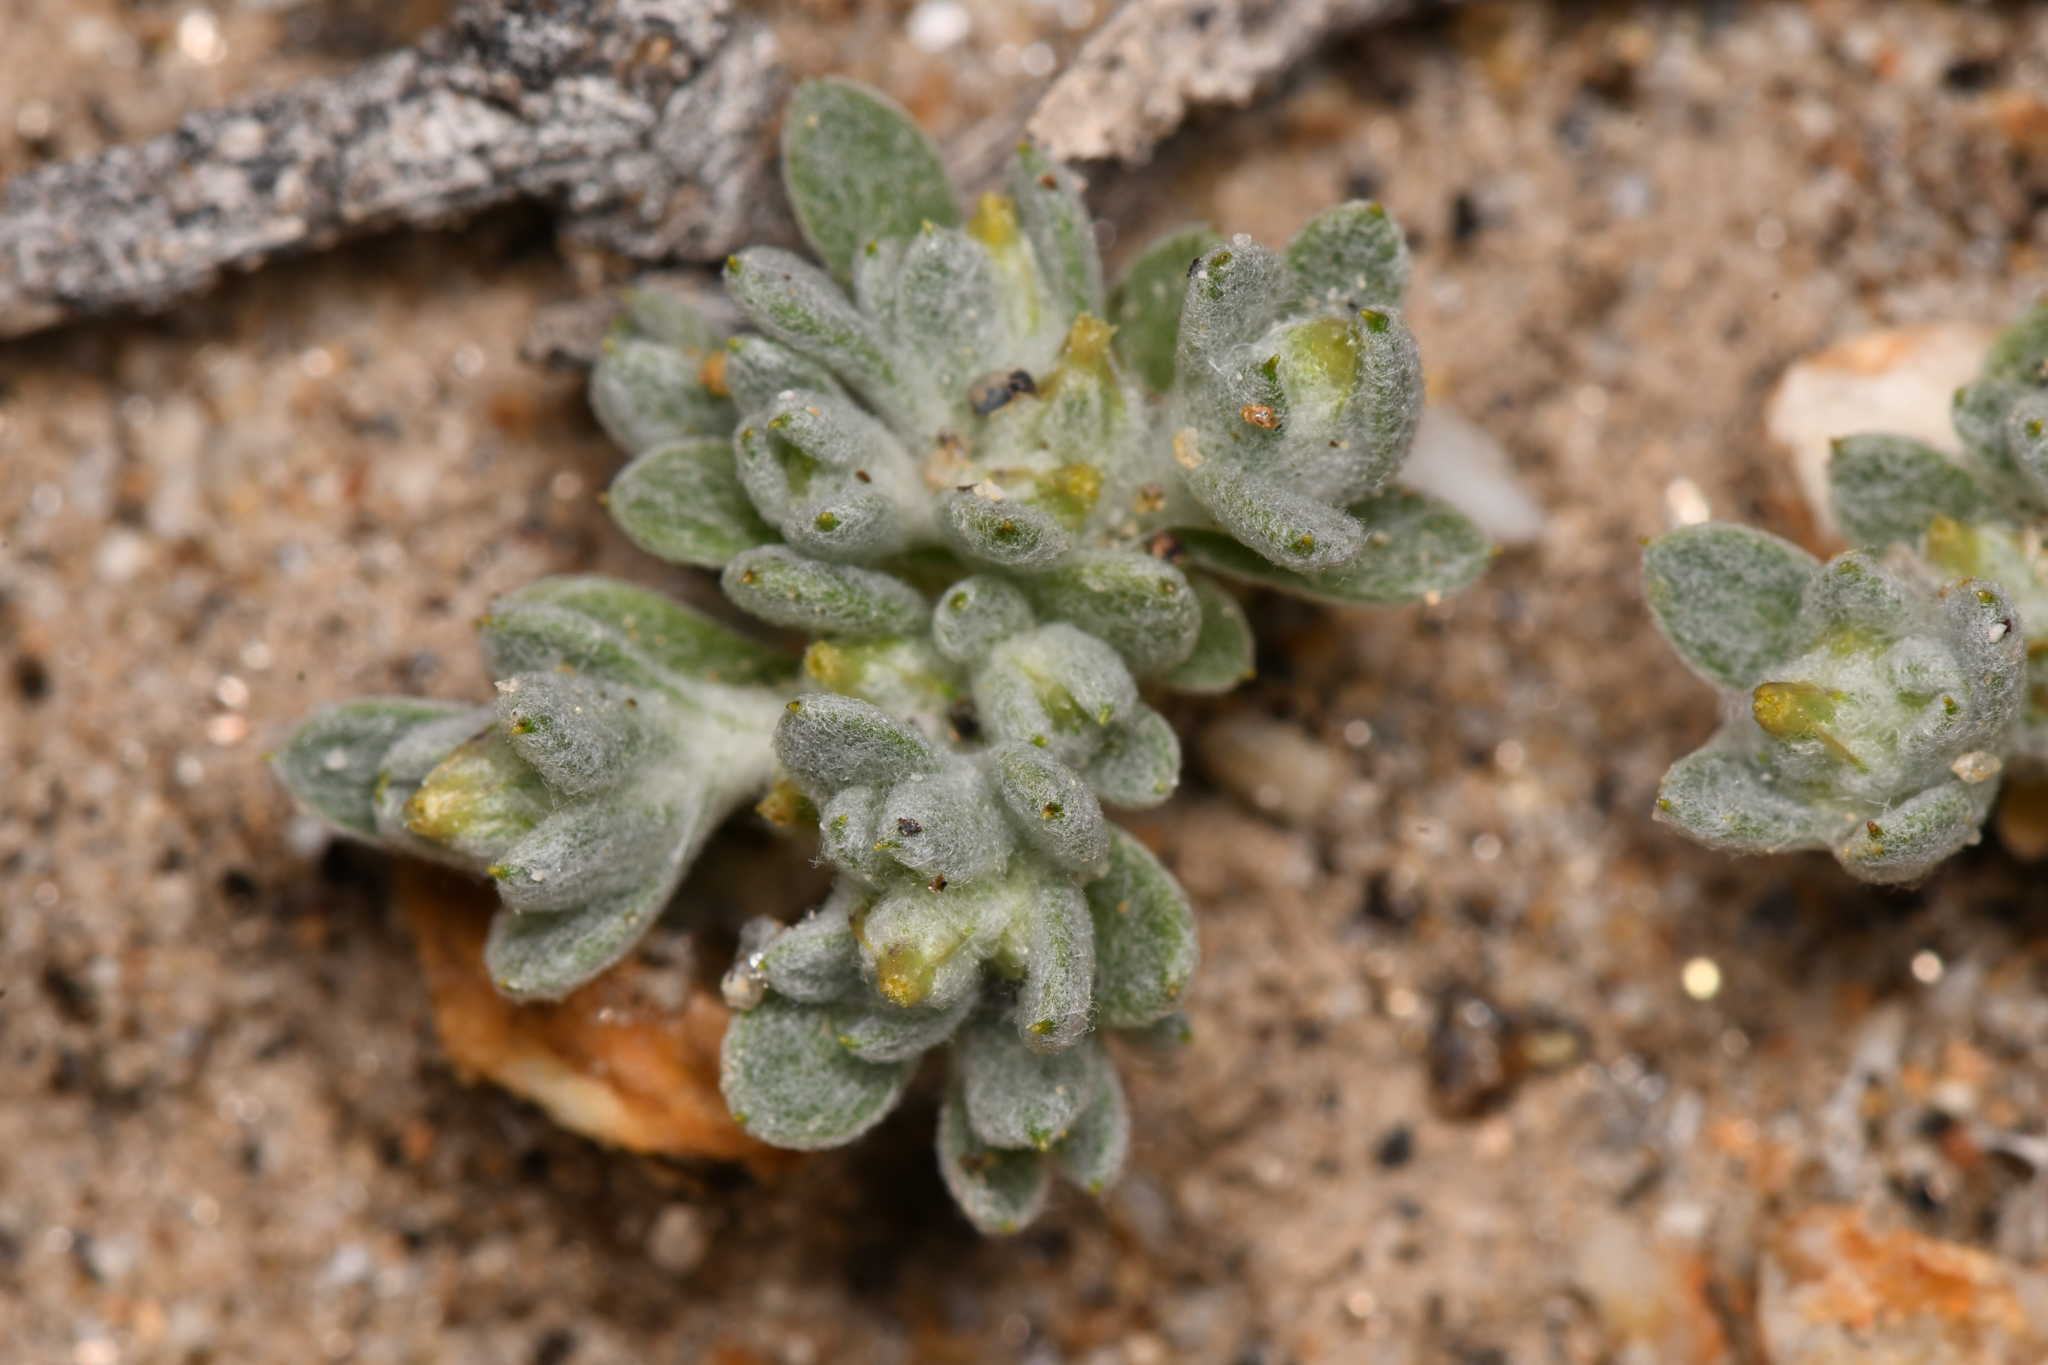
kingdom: Plantae
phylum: Tracheophyta
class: Magnoliopsida
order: Asterales
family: Asteraceae
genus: Logfia
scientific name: Logfia depressa
